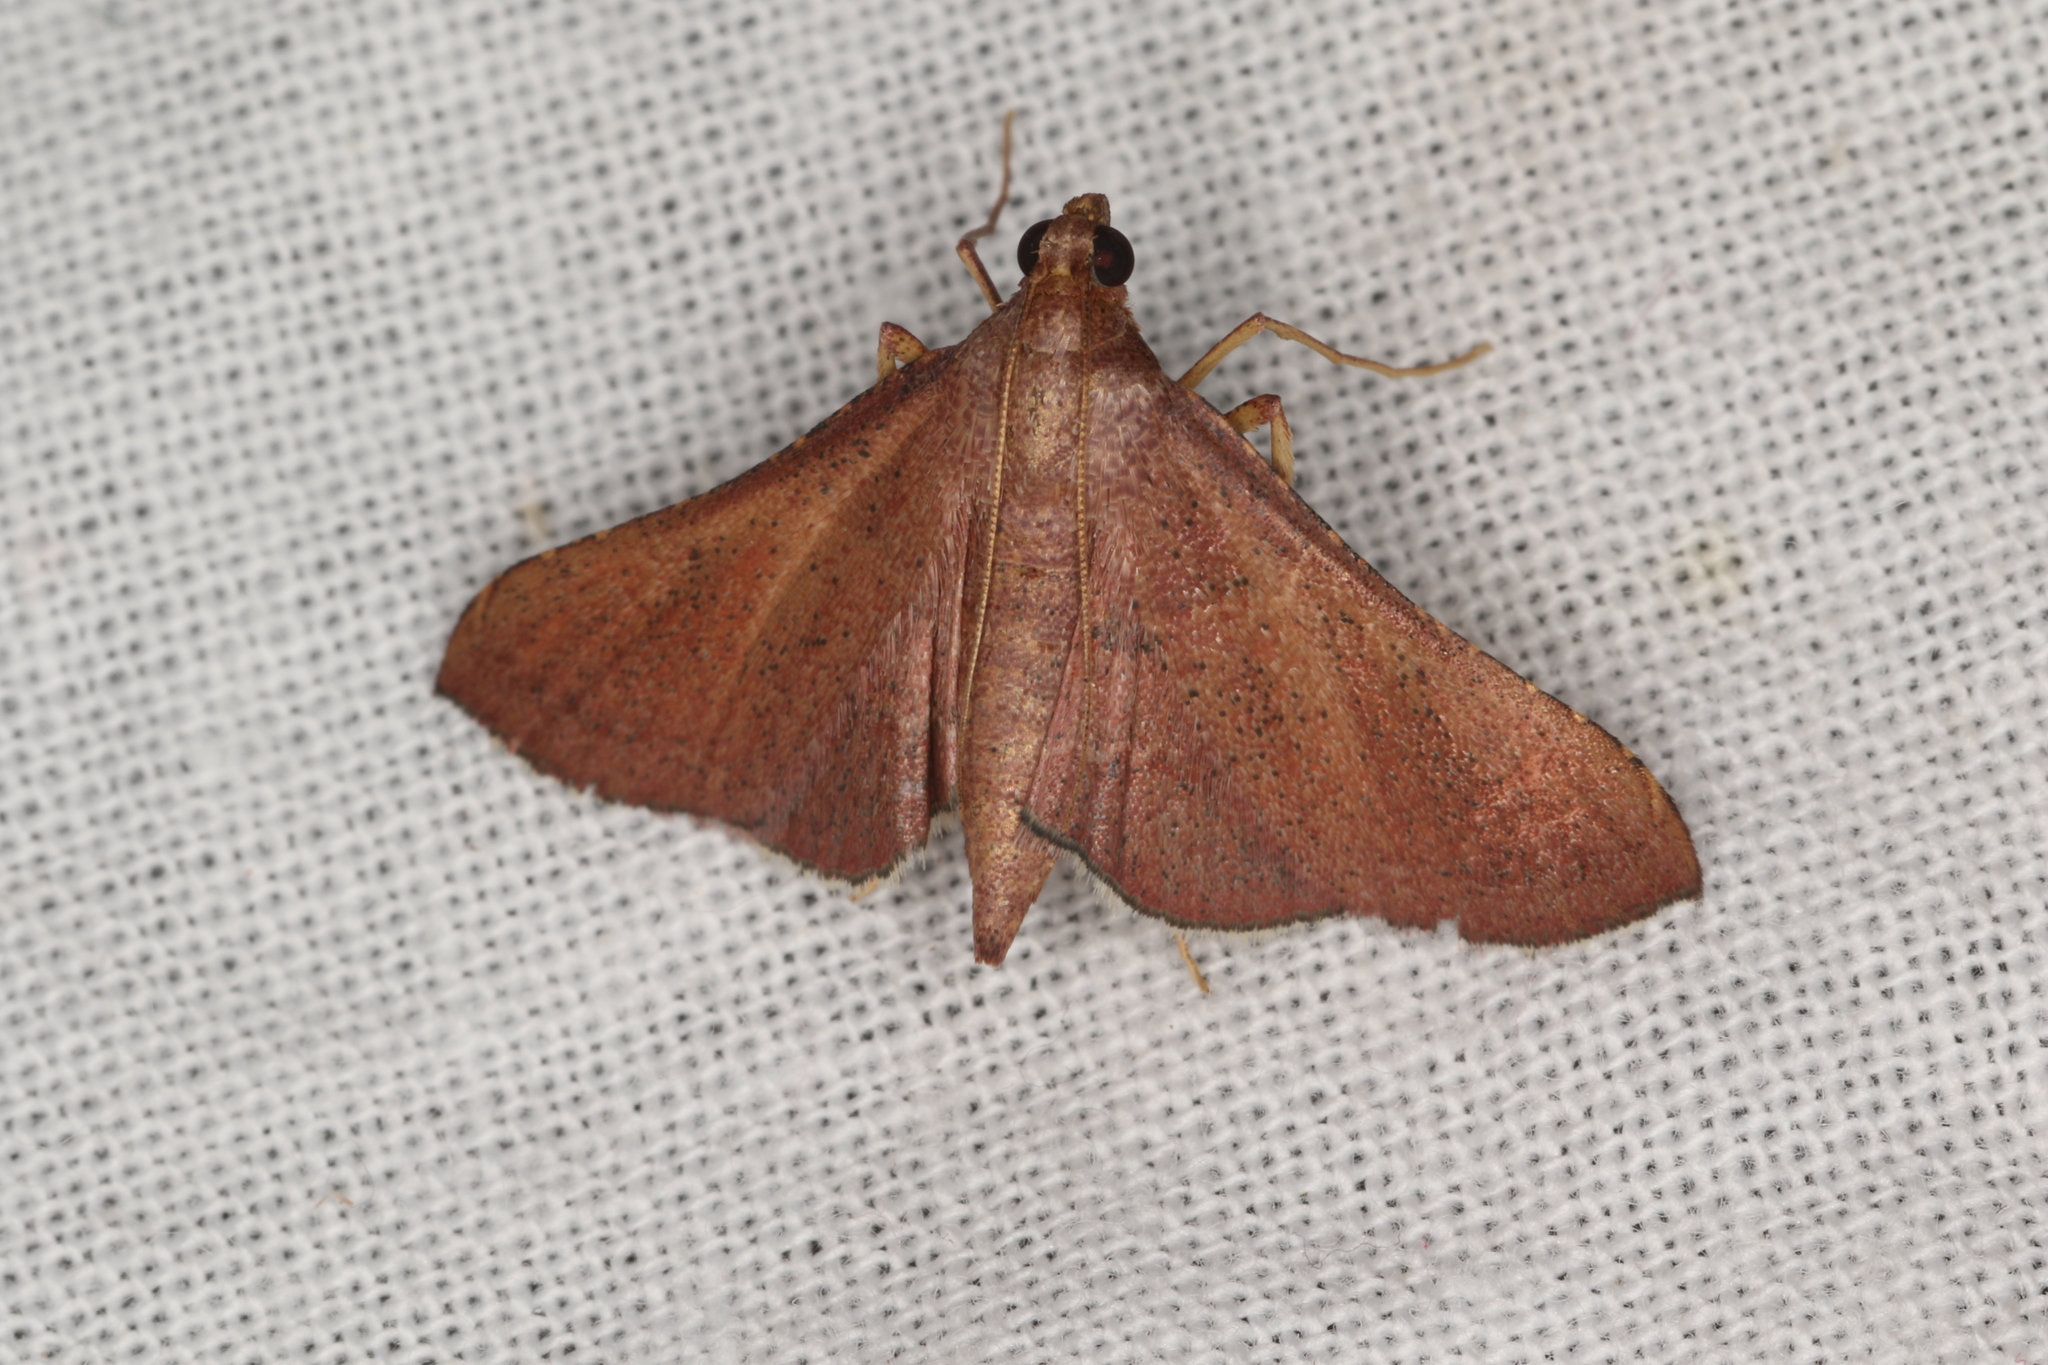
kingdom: Animalia
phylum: Arthropoda
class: Insecta
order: Lepidoptera
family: Pyralidae
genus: Endotricha
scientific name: Endotricha ignealis
